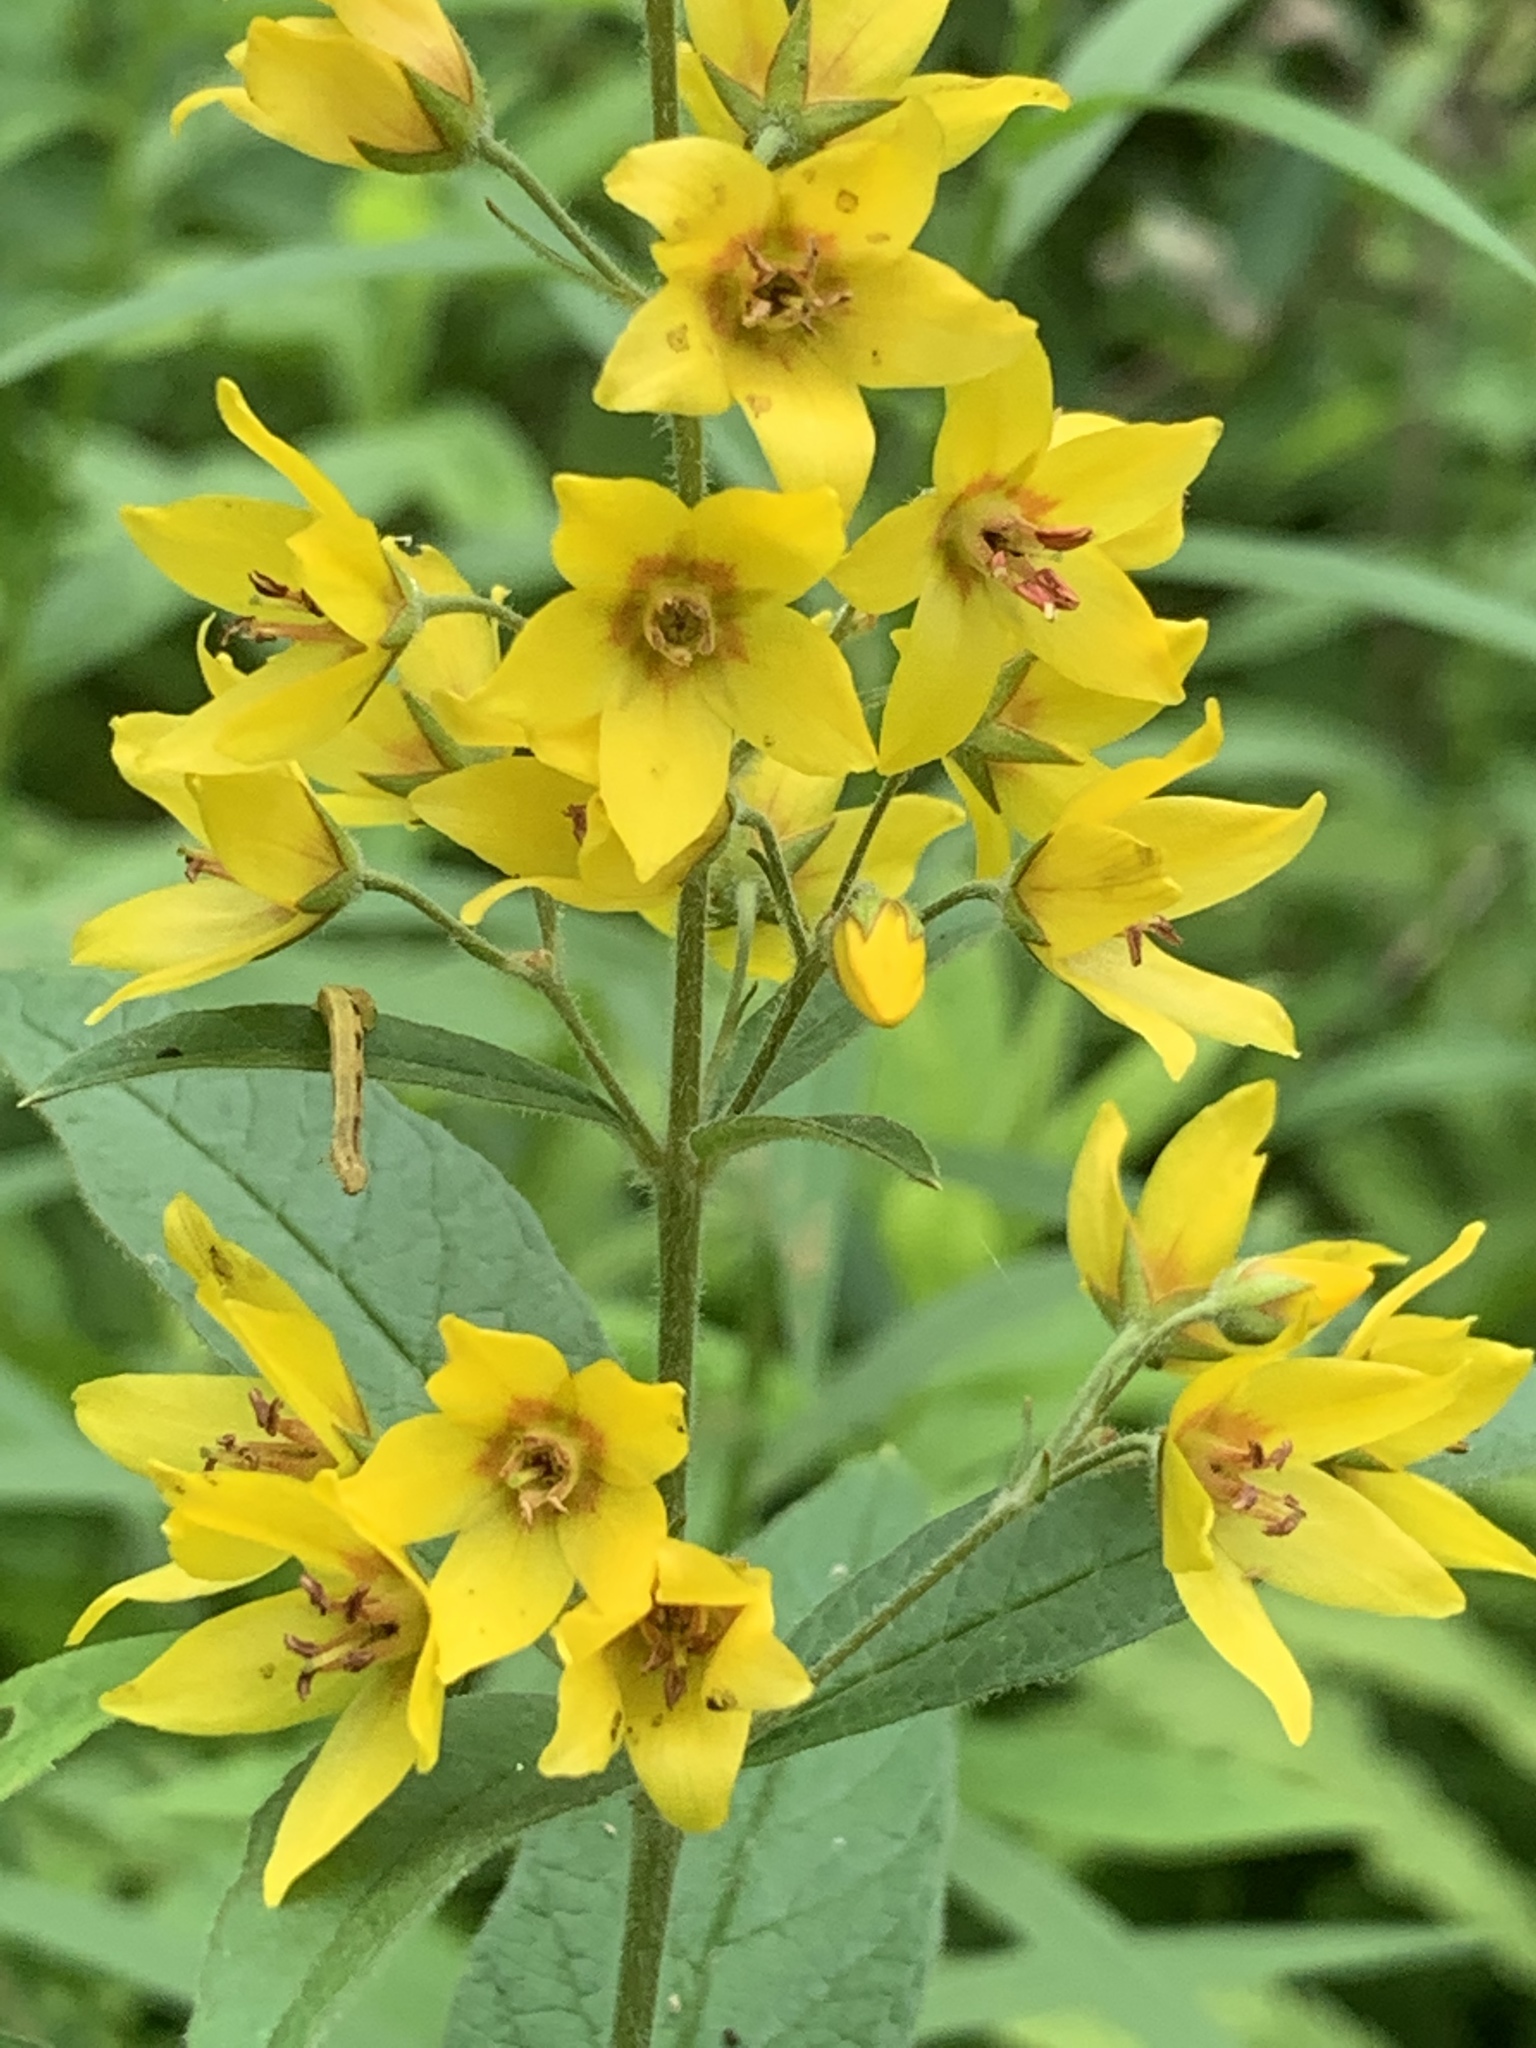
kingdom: Plantae
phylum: Tracheophyta
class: Magnoliopsida
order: Ericales
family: Primulaceae
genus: Lysimachia
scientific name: Lysimachia vulgaris
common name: Yellow loosestrife
